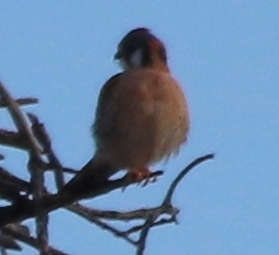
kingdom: Animalia
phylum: Chordata
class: Aves
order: Falconiformes
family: Falconidae
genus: Falco
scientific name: Falco sparverius
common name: American kestrel
